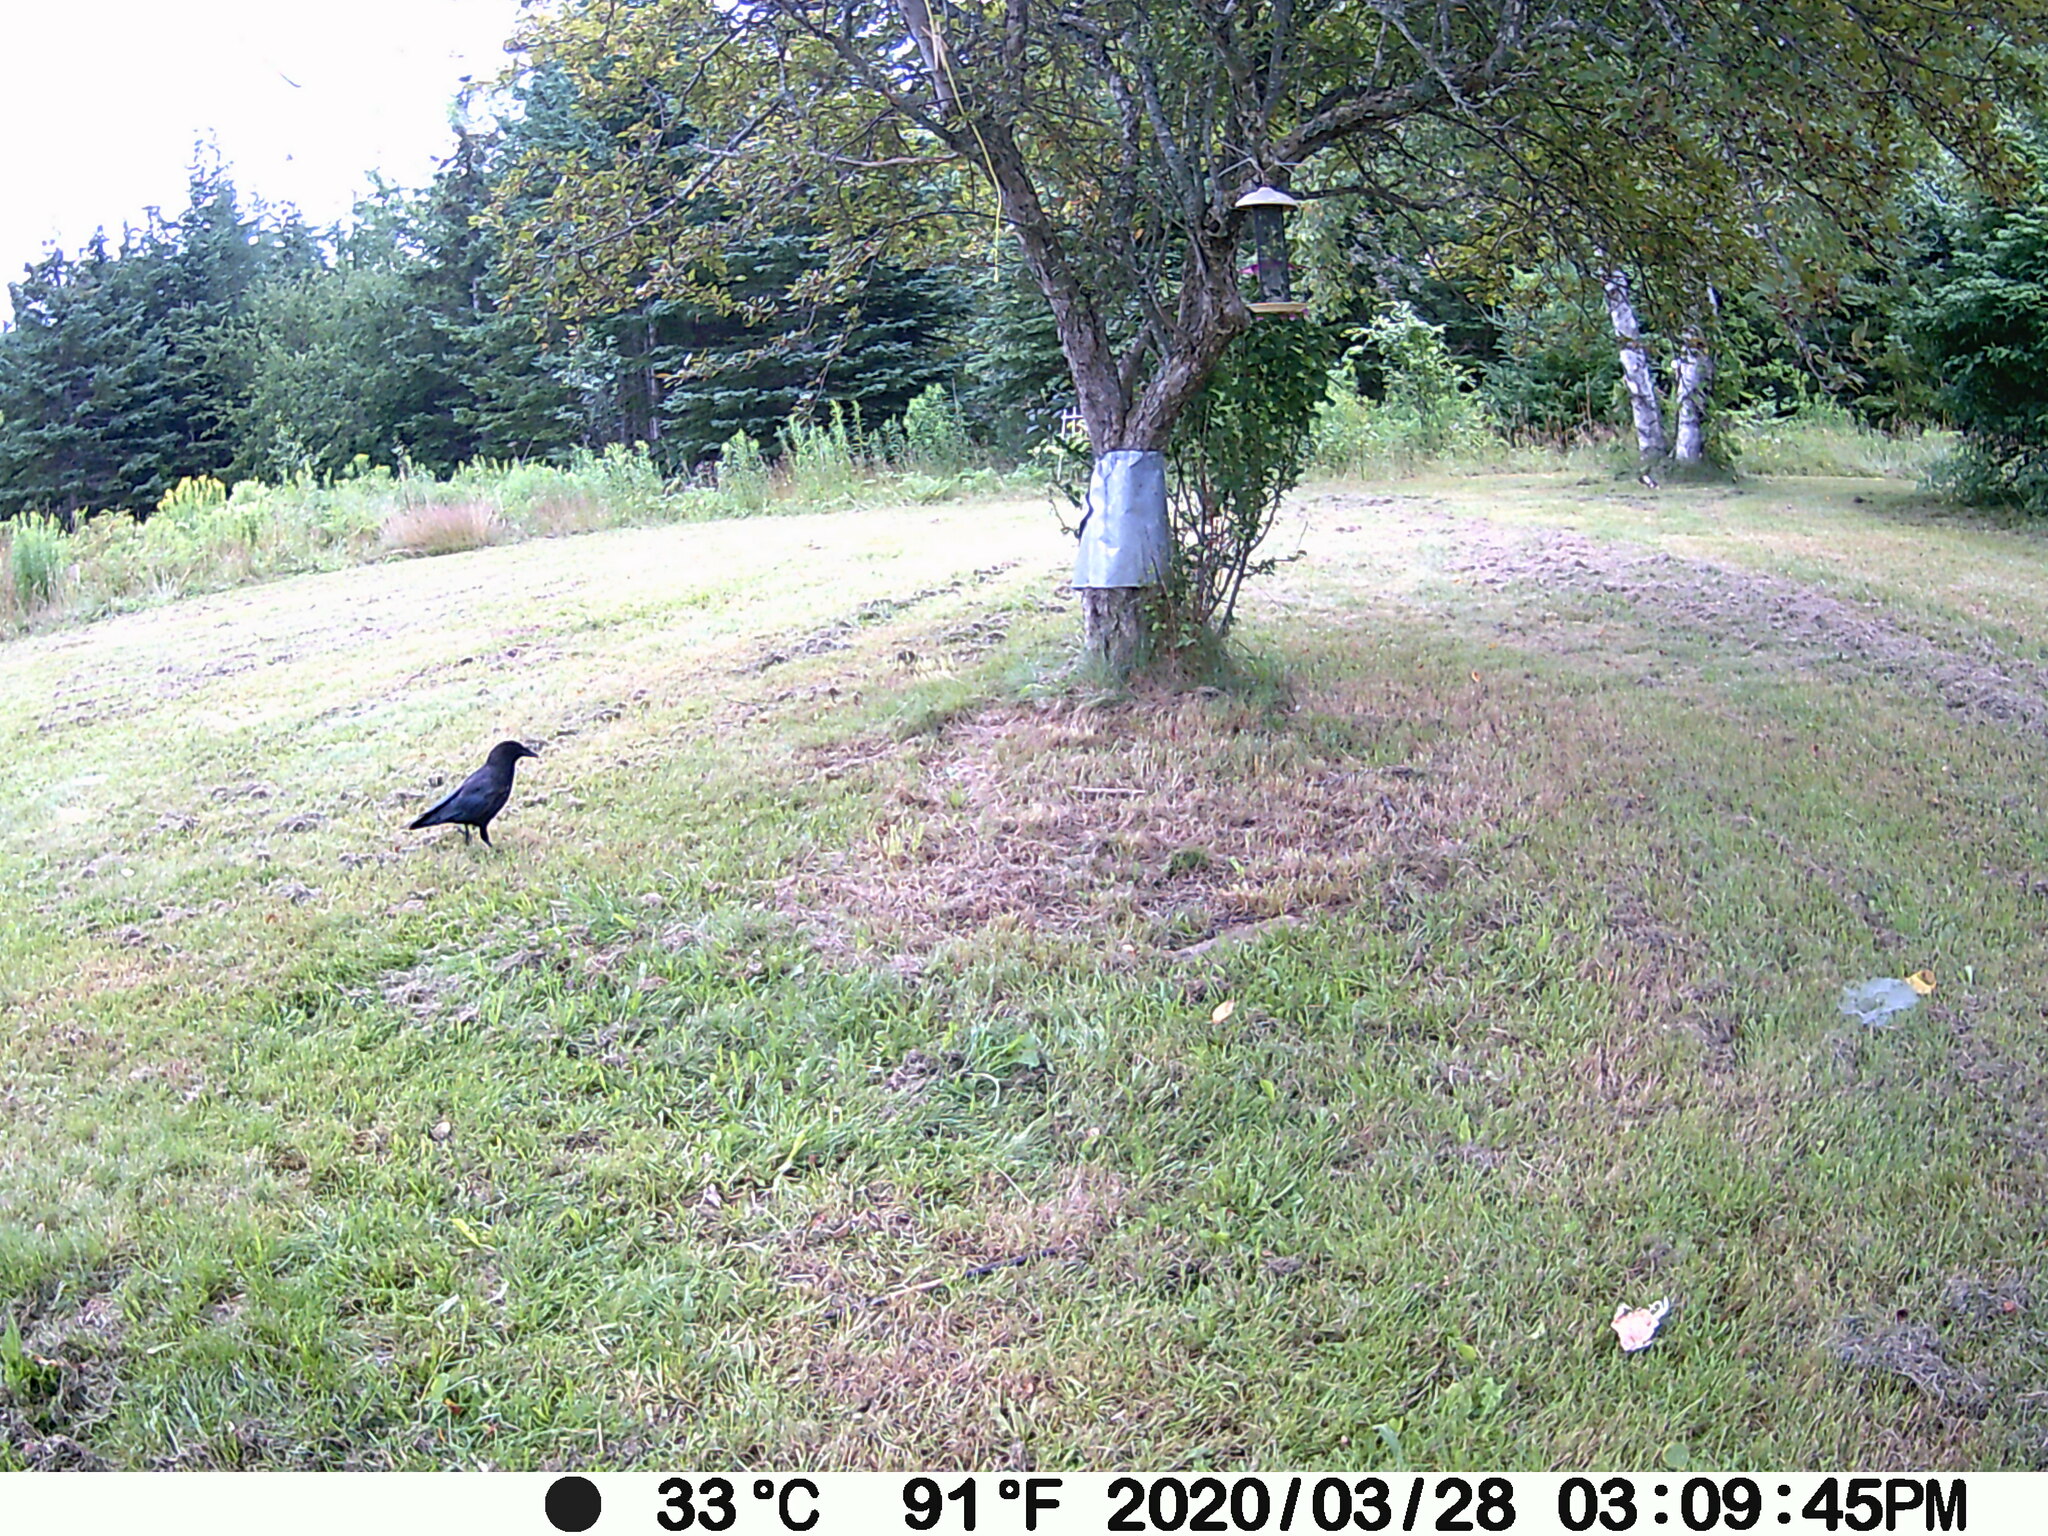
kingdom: Animalia
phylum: Chordata
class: Aves
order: Passeriformes
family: Corvidae
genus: Corvus
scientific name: Corvus brachyrhynchos
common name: American crow
